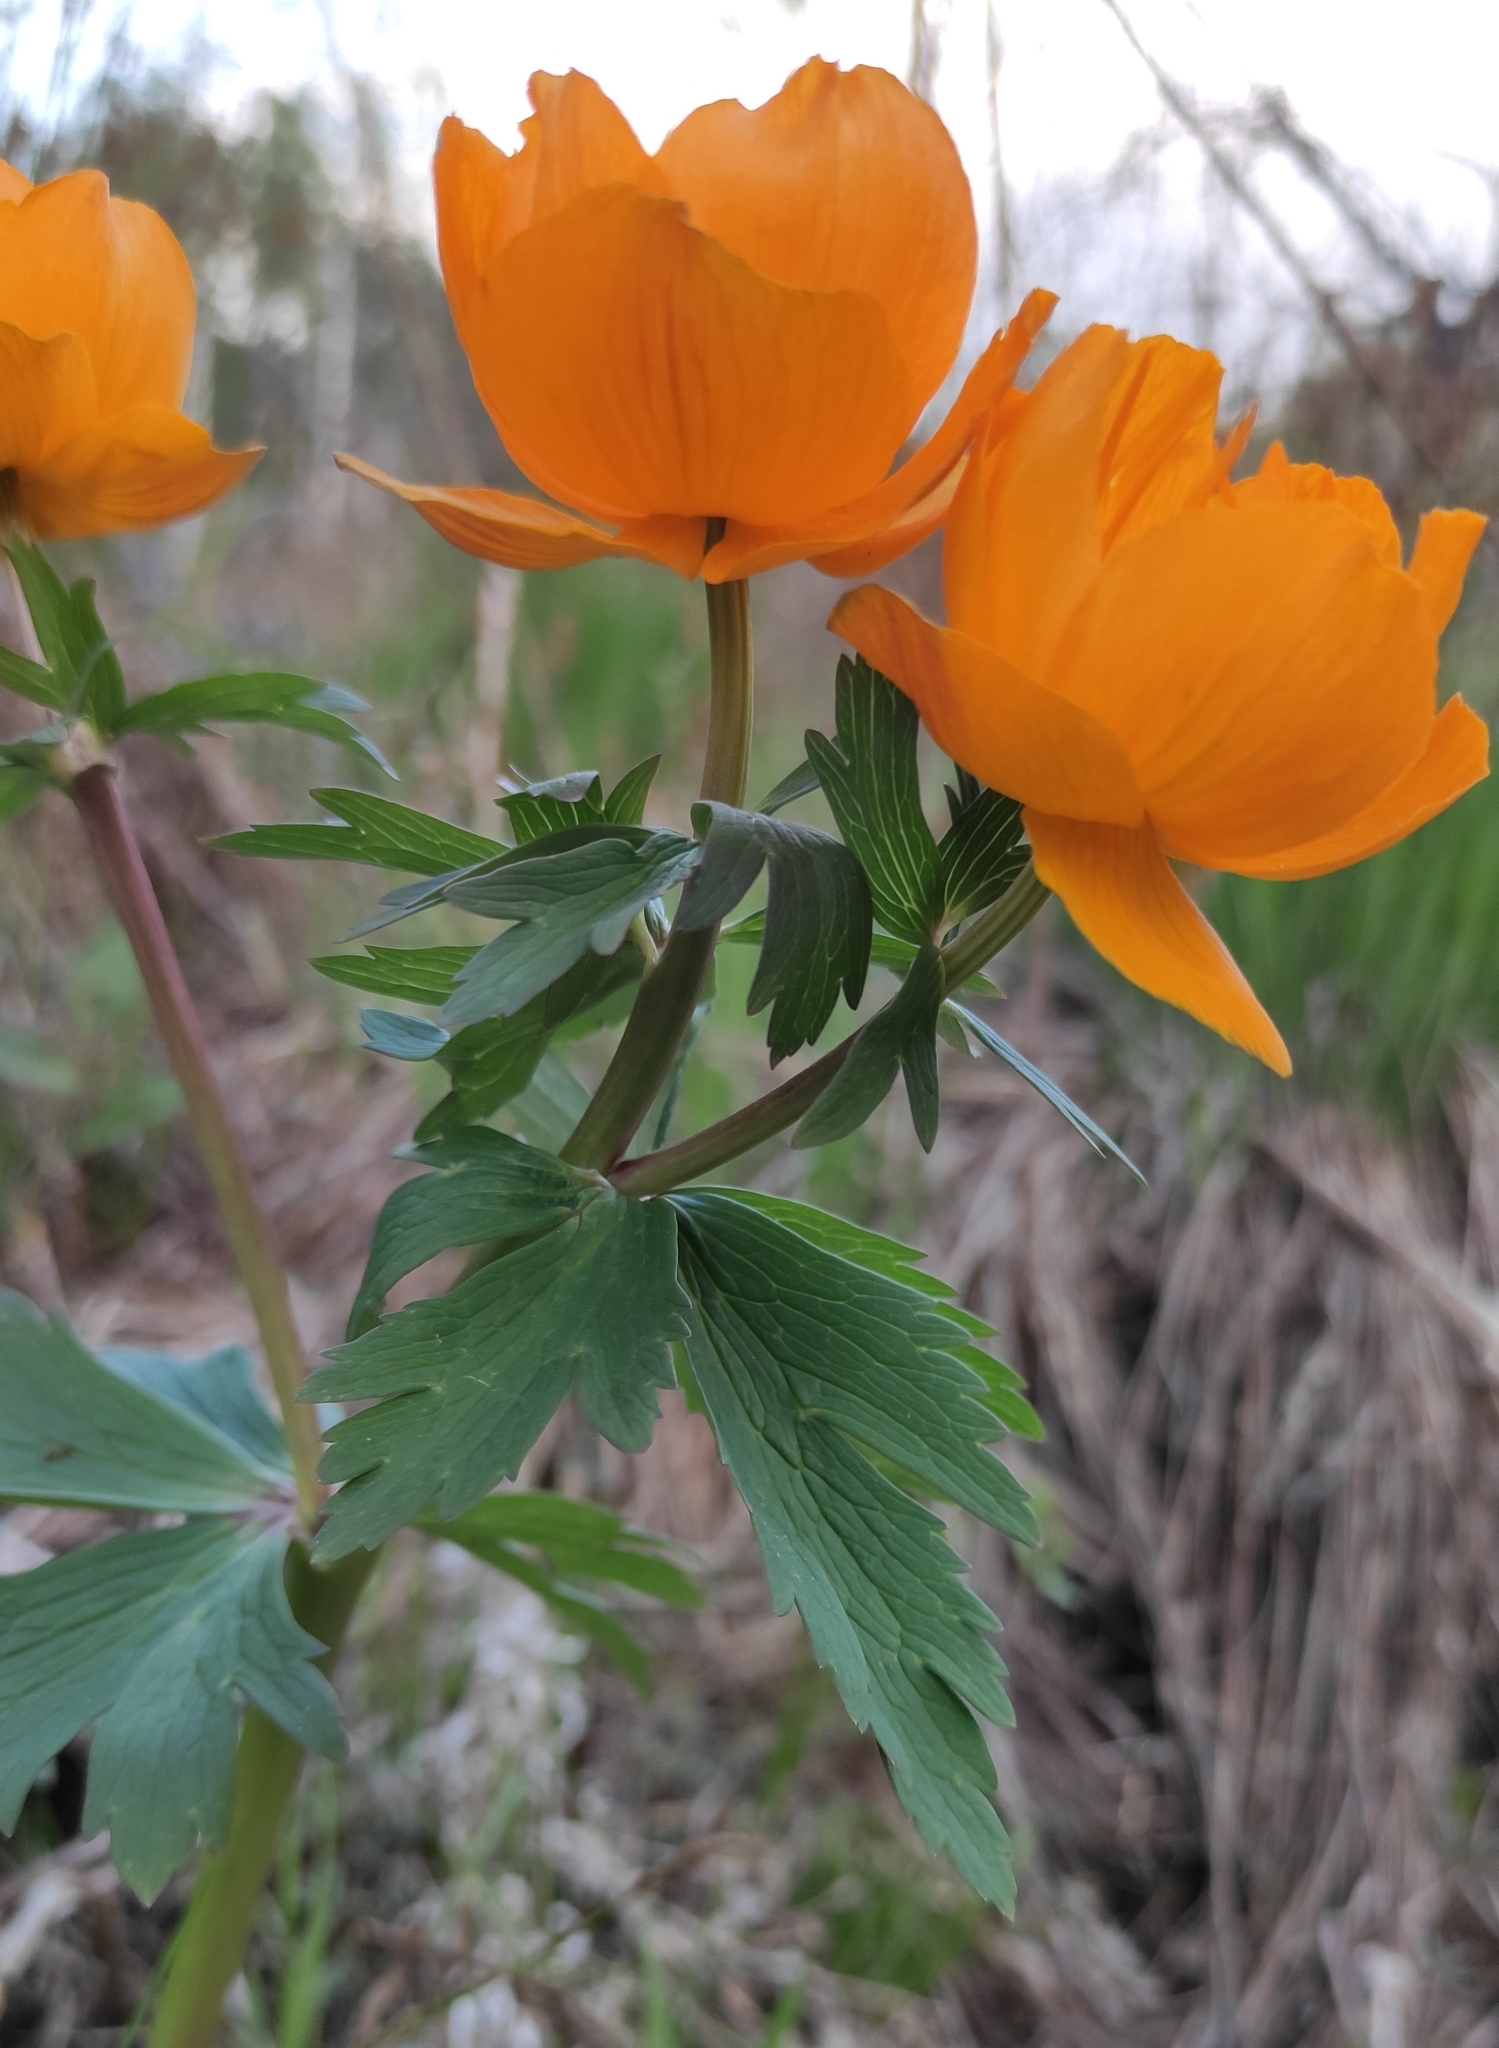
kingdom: Plantae
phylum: Tracheophyta
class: Magnoliopsida
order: Ranunculales
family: Ranunculaceae
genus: Trollius
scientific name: Trollius kytmanovii
